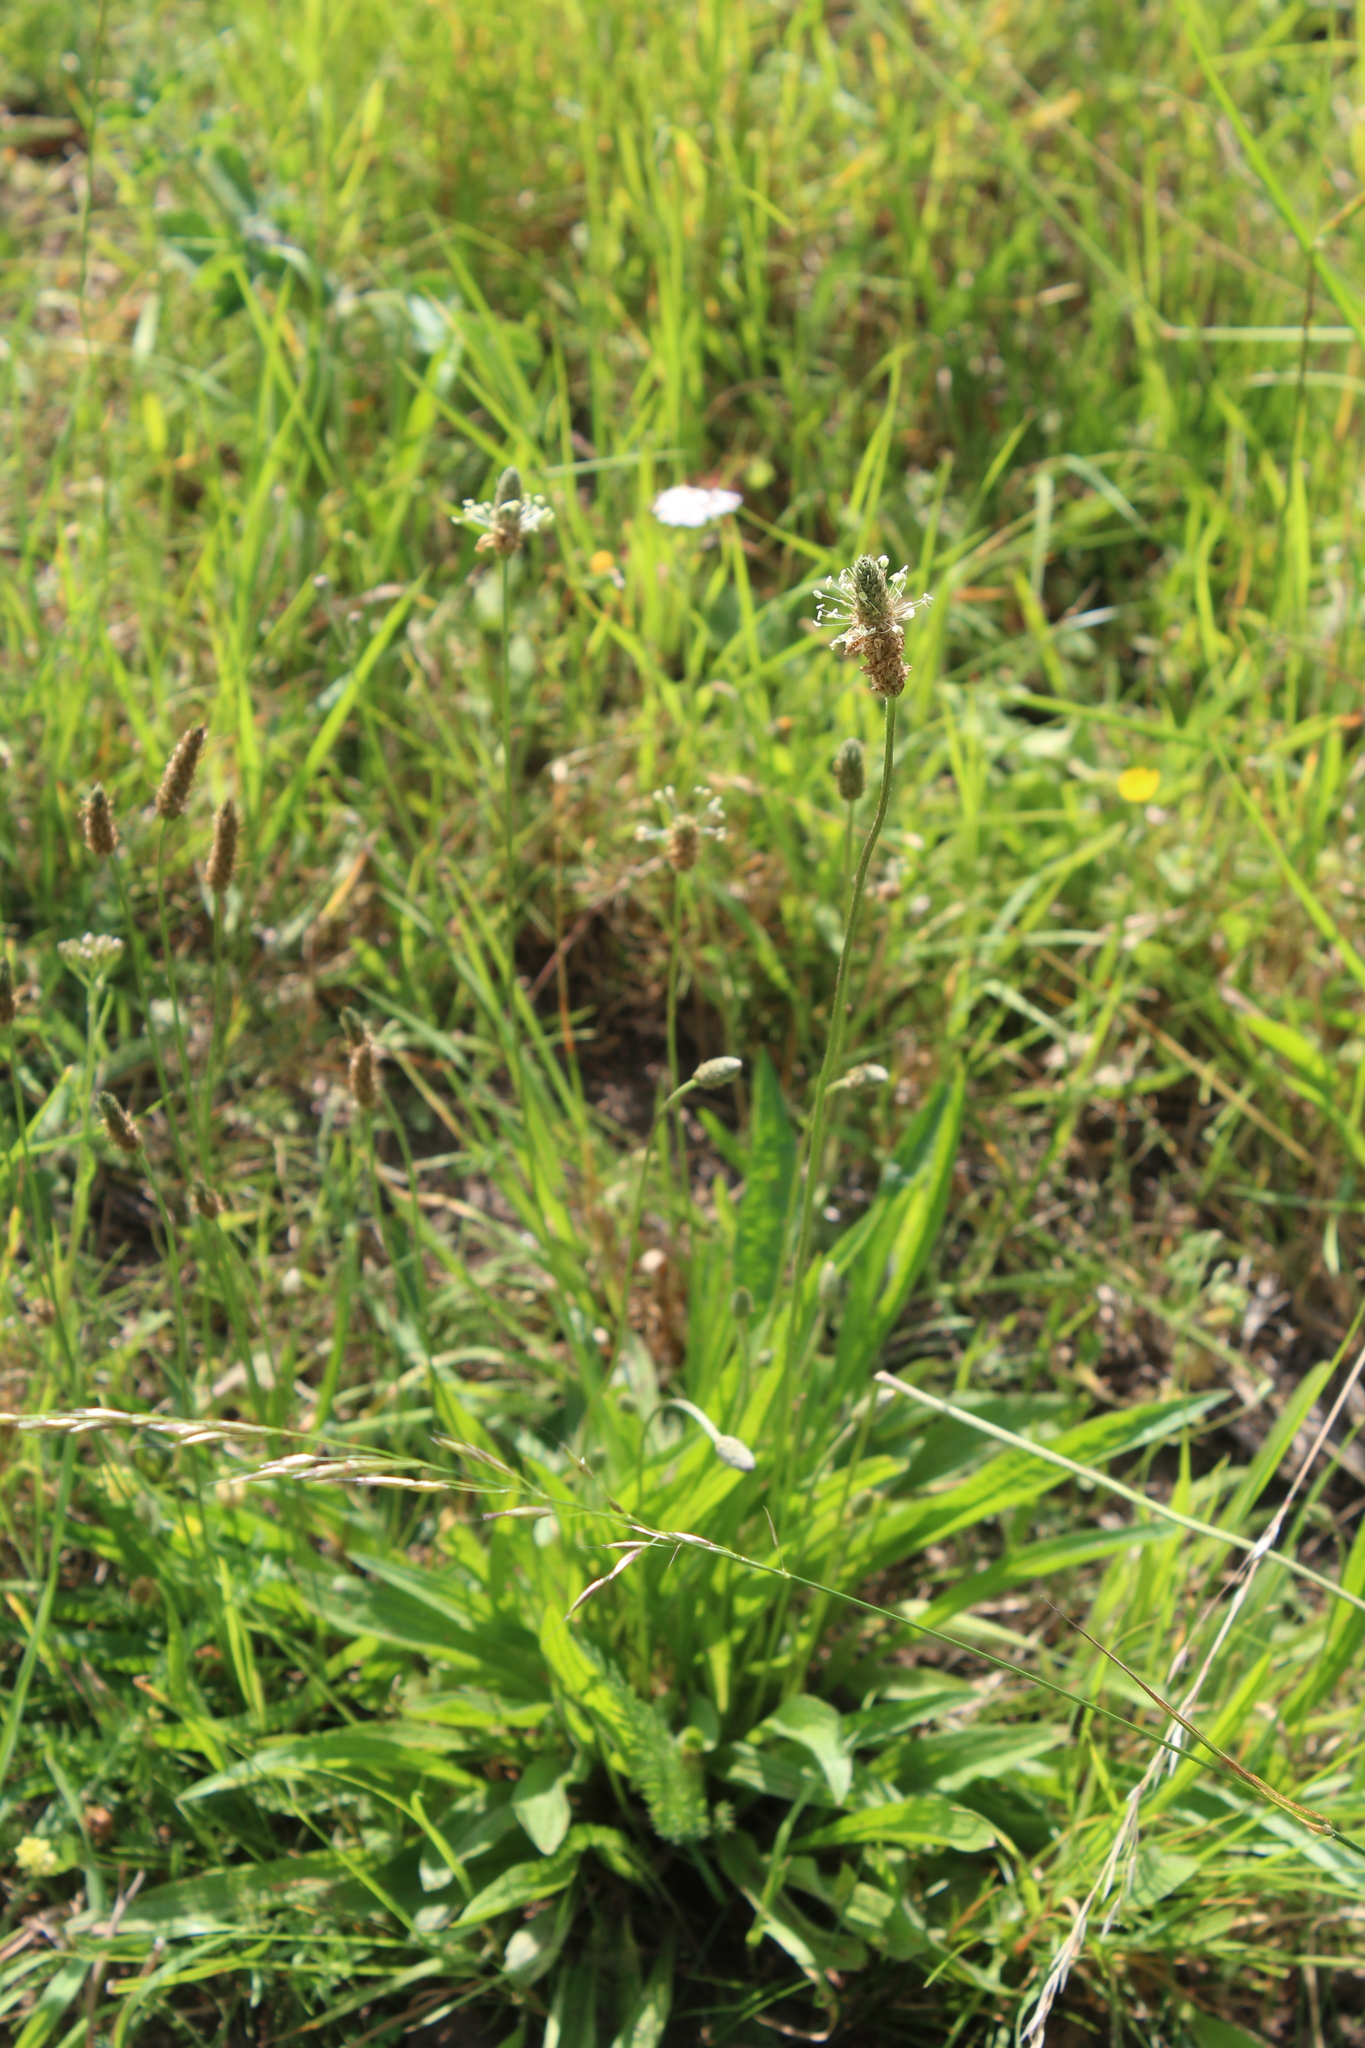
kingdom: Plantae
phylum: Tracheophyta
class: Magnoliopsida
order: Lamiales
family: Plantaginaceae
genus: Plantago
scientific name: Plantago lanceolata
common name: Ribwort plantain
